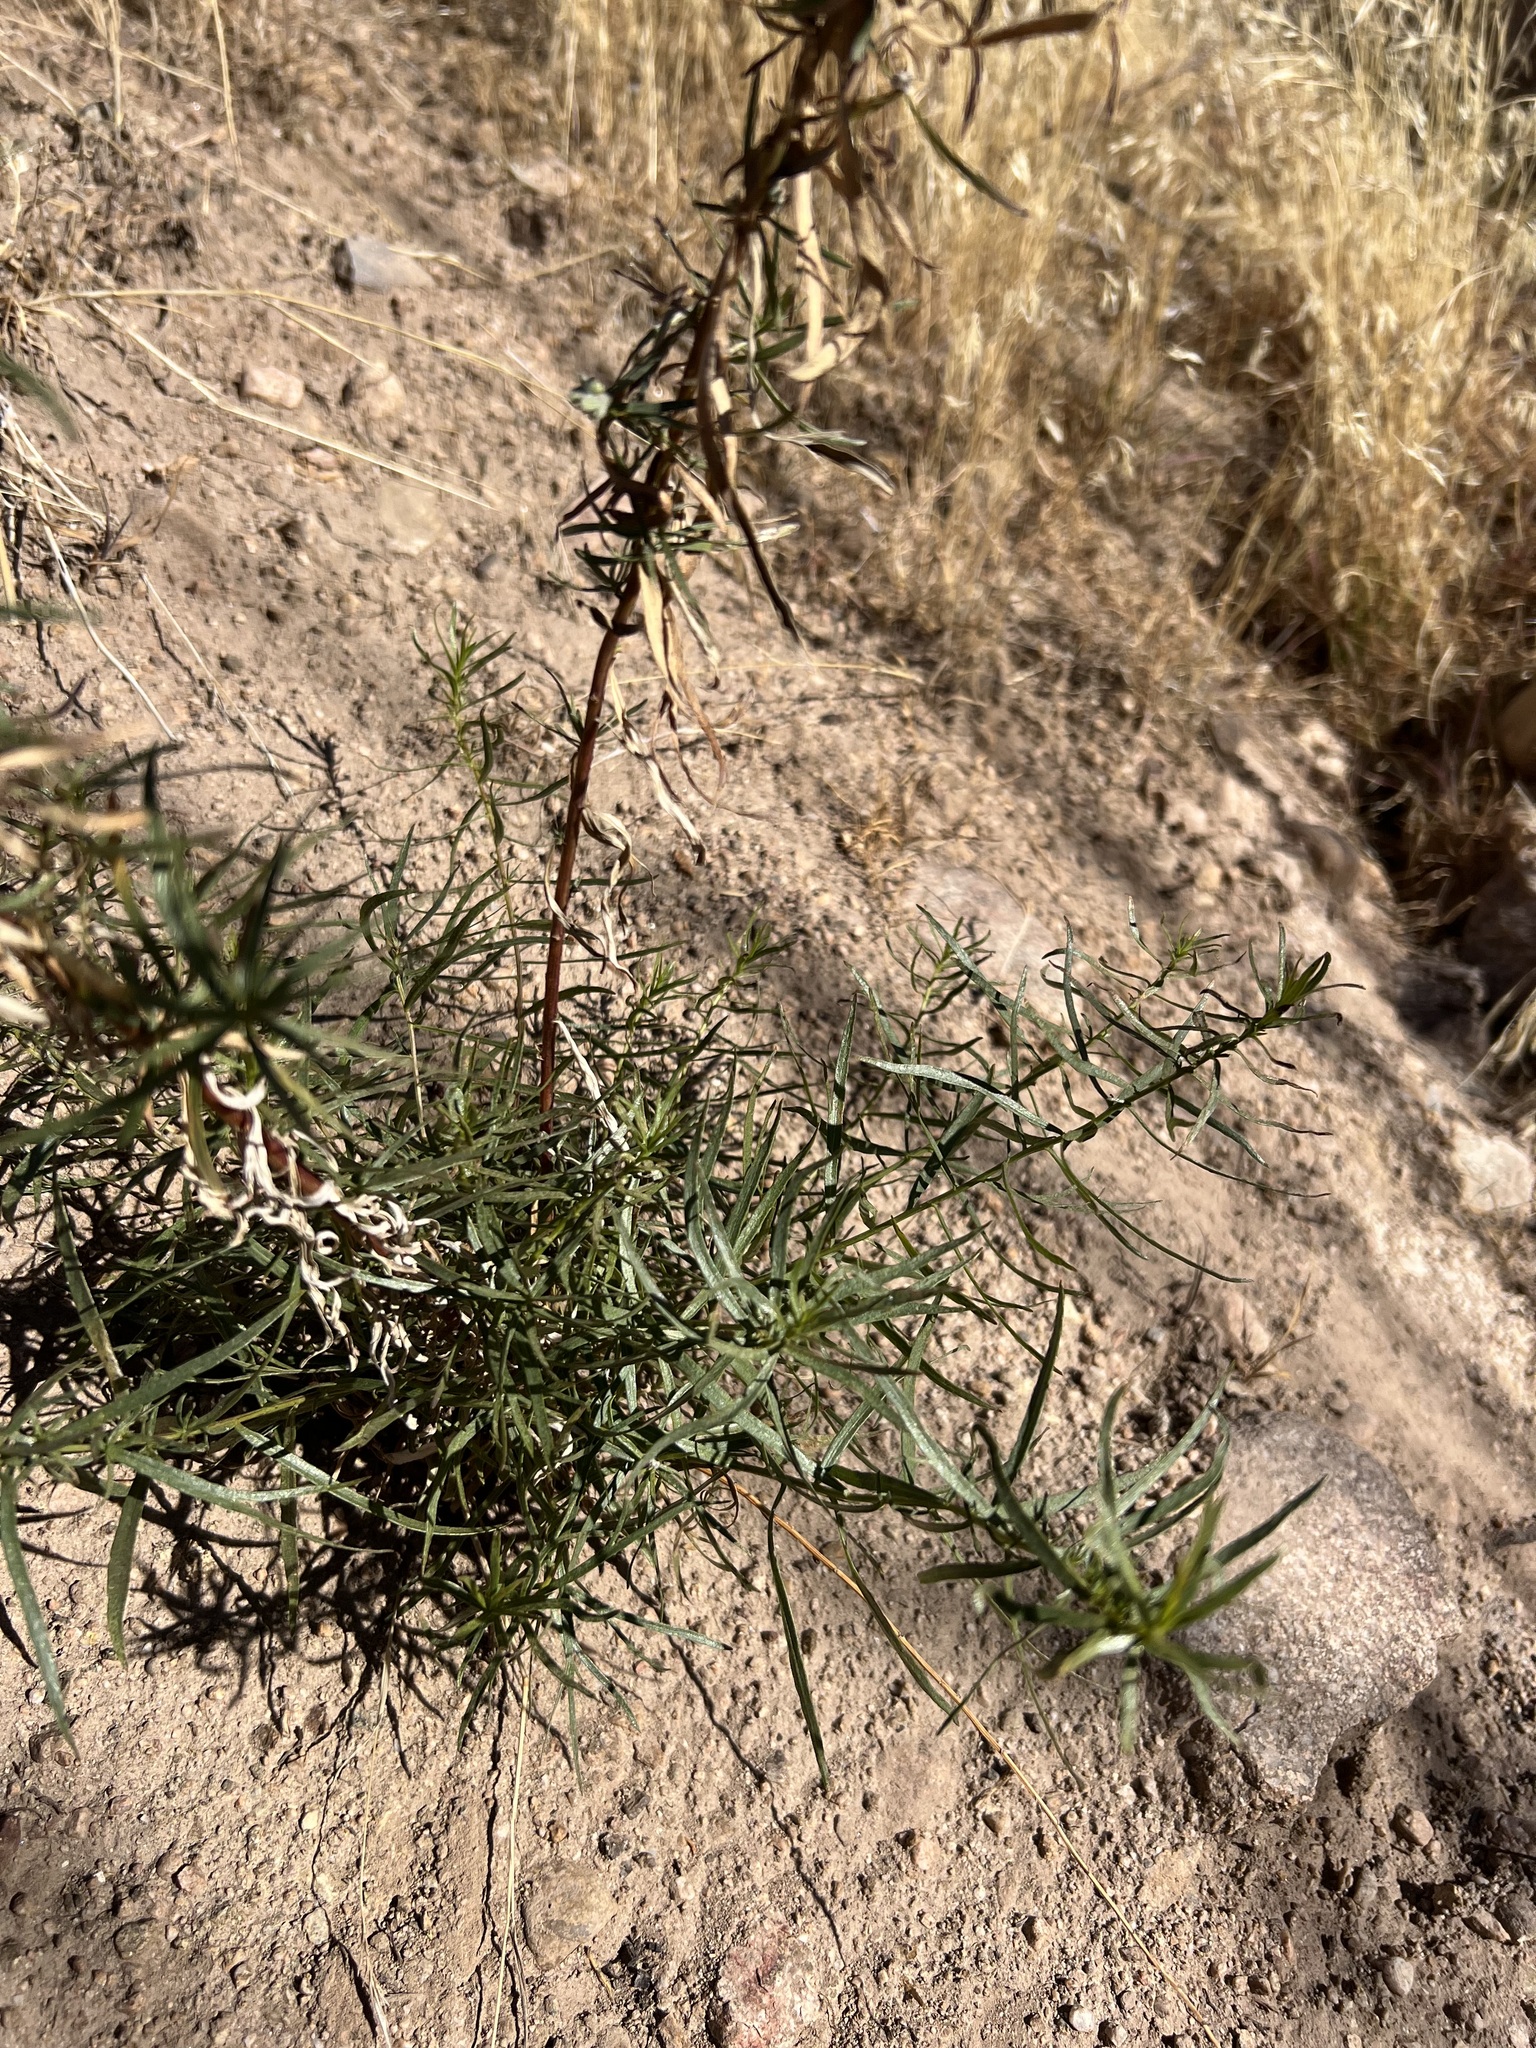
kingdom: Plantae
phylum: Tracheophyta
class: Magnoliopsida
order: Asterales
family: Asteraceae
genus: Artemisia
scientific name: Artemisia dracunculus
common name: Tarragon
